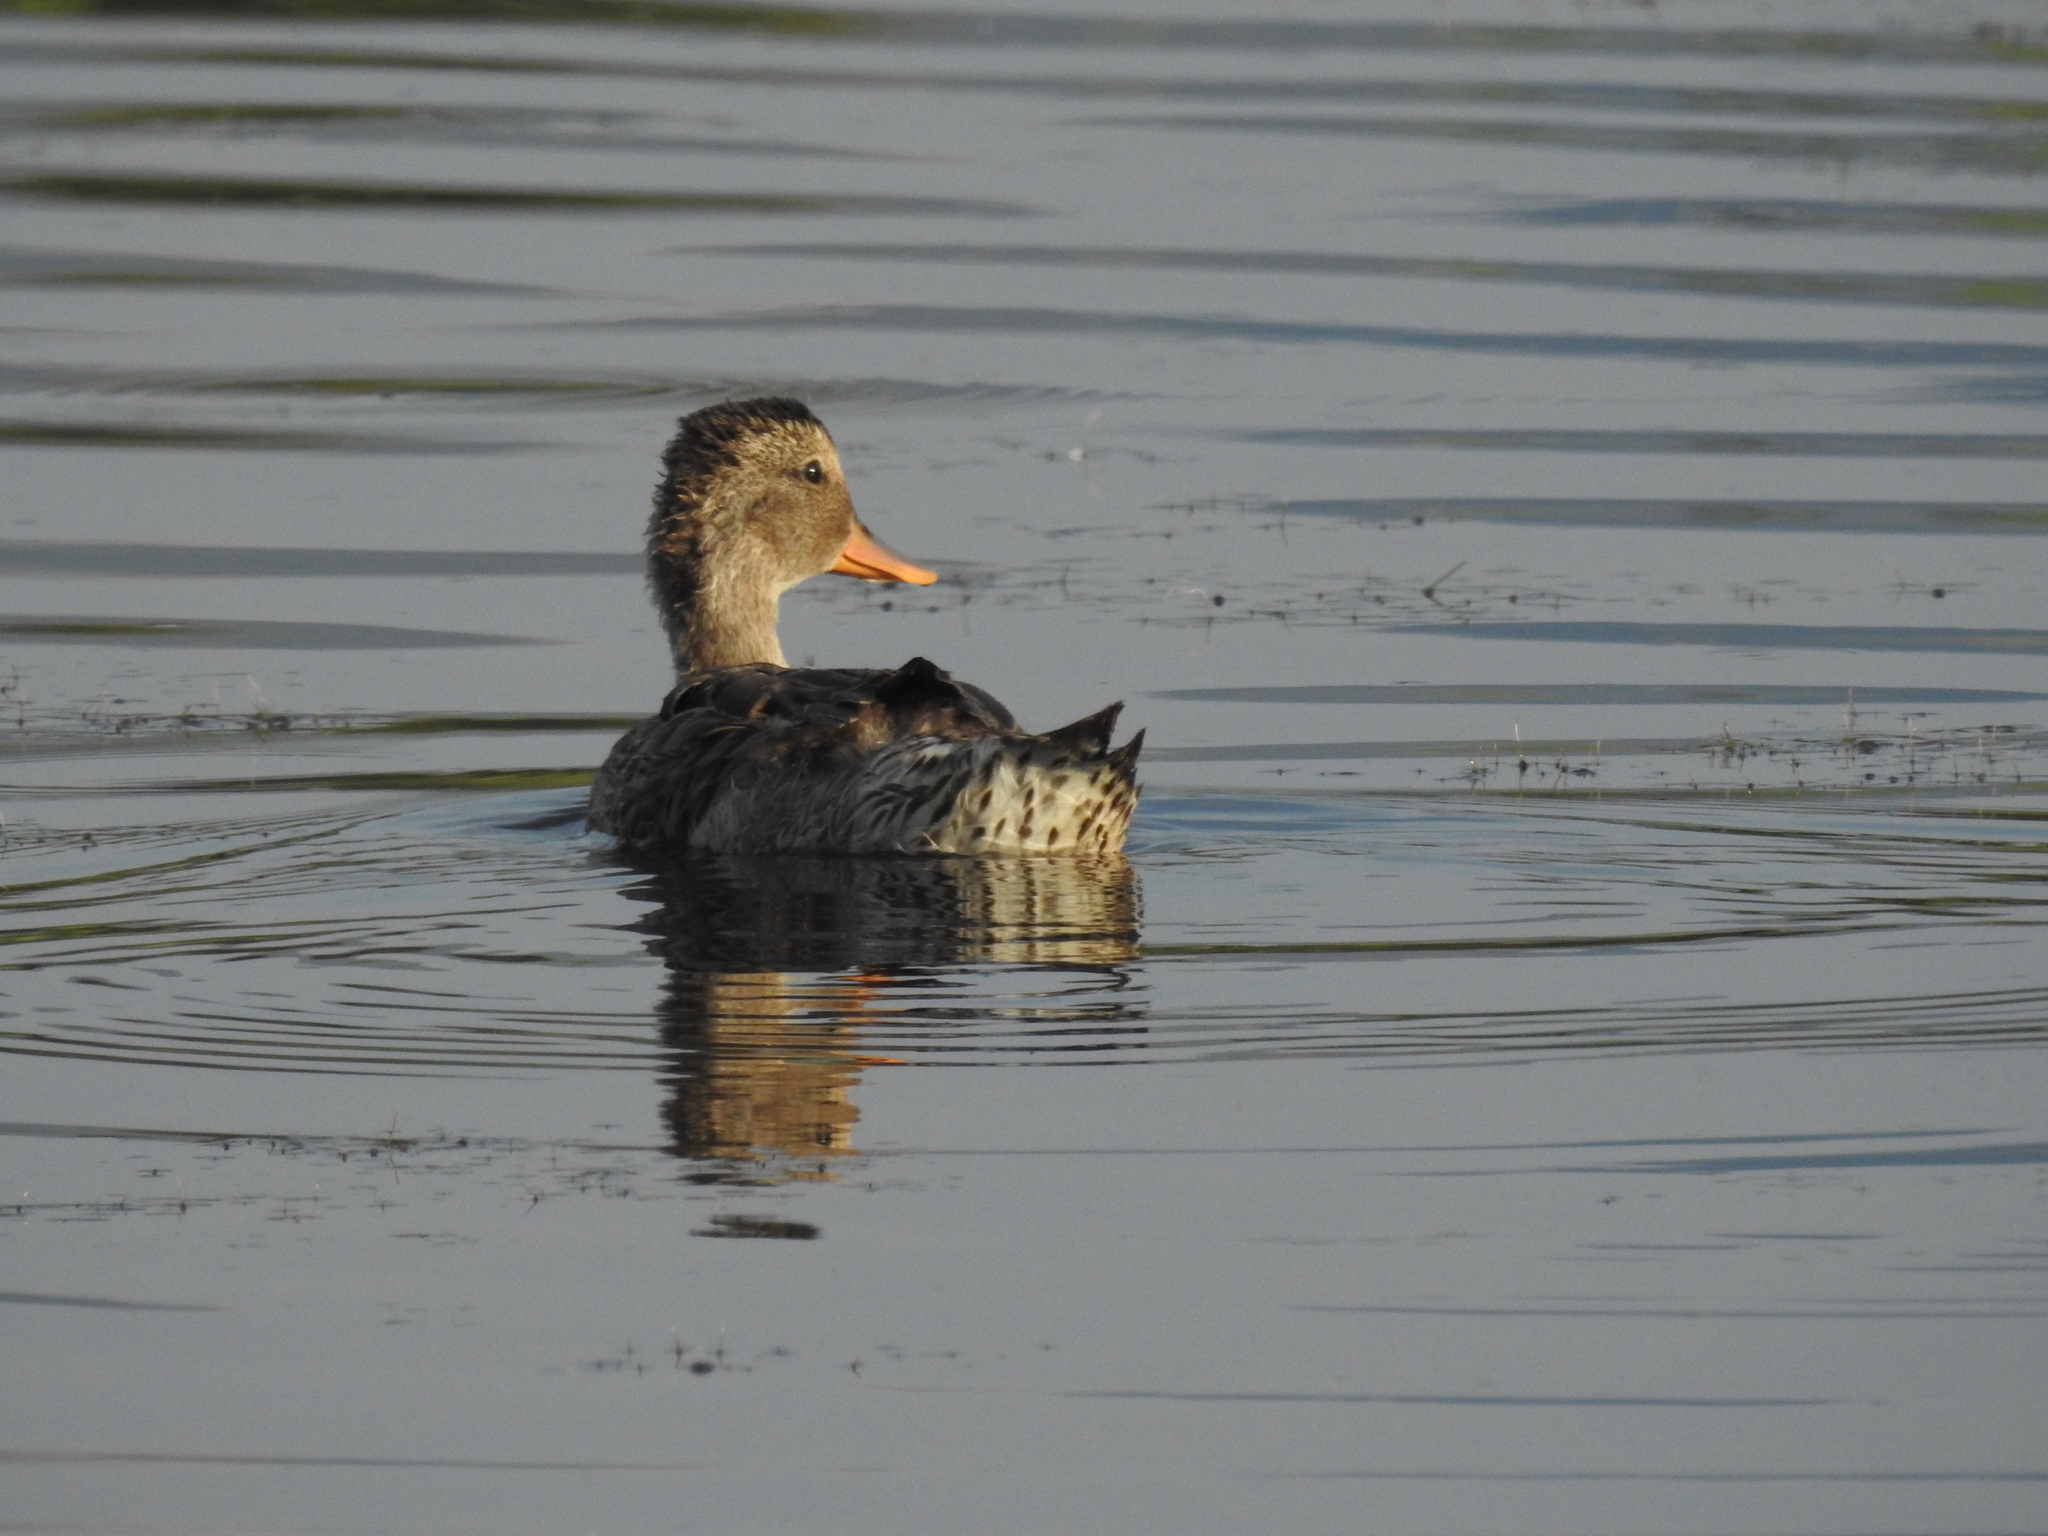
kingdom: Animalia
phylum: Chordata
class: Aves
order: Anseriformes
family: Anatidae
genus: Mareca
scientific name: Mareca strepera
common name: Gadwall
